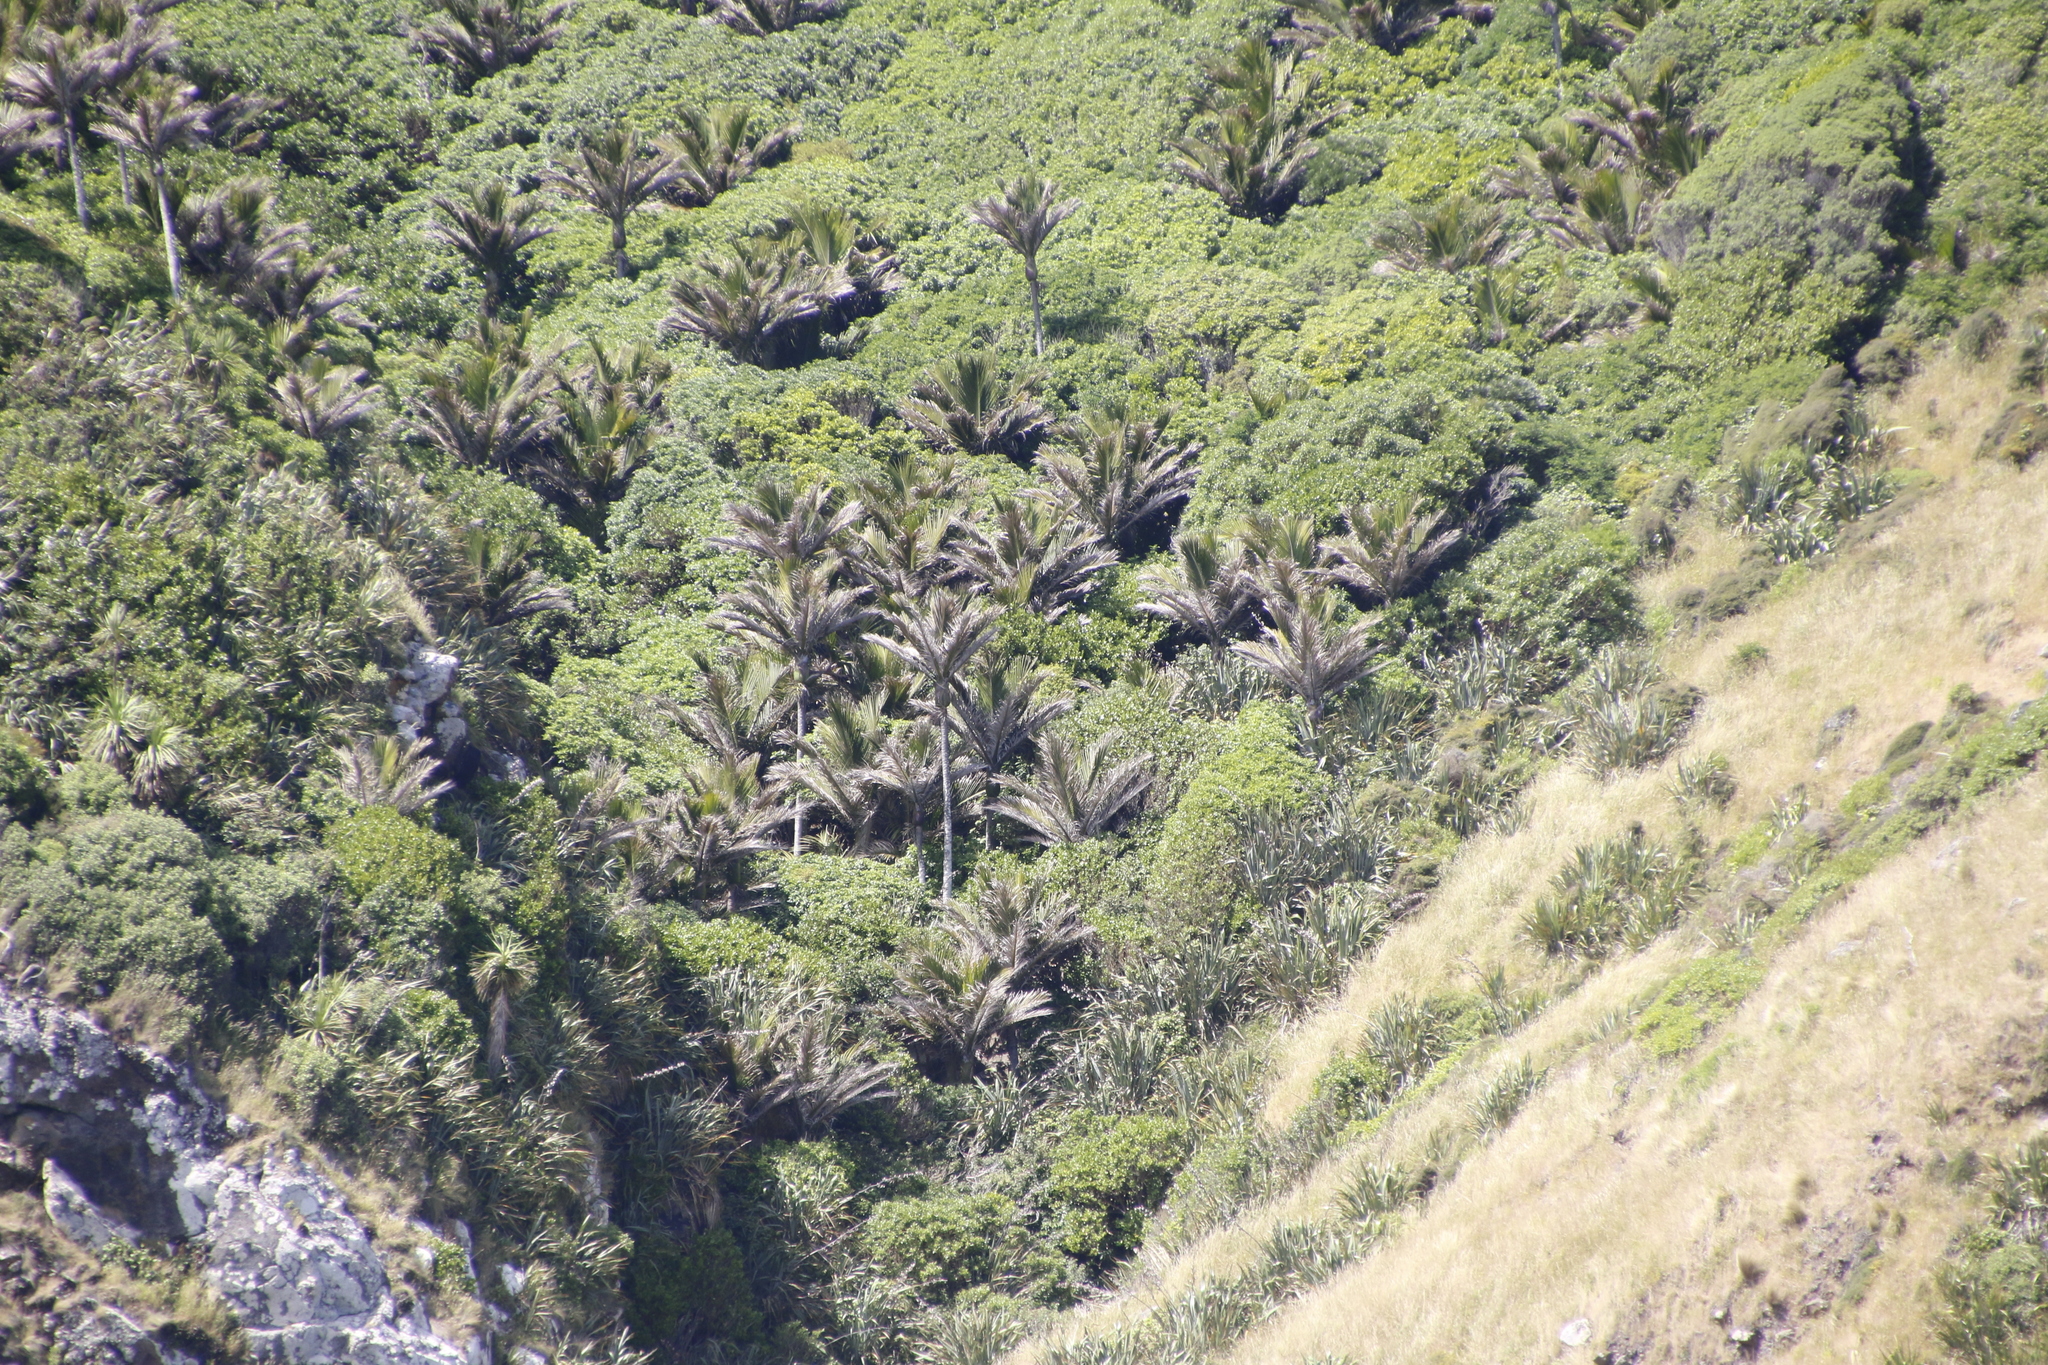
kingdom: Plantae
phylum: Tracheophyta
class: Liliopsida
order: Arecales
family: Arecaceae
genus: Rhopalostylis
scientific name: Rhopalostylis sapida
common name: Feather-duster palm
